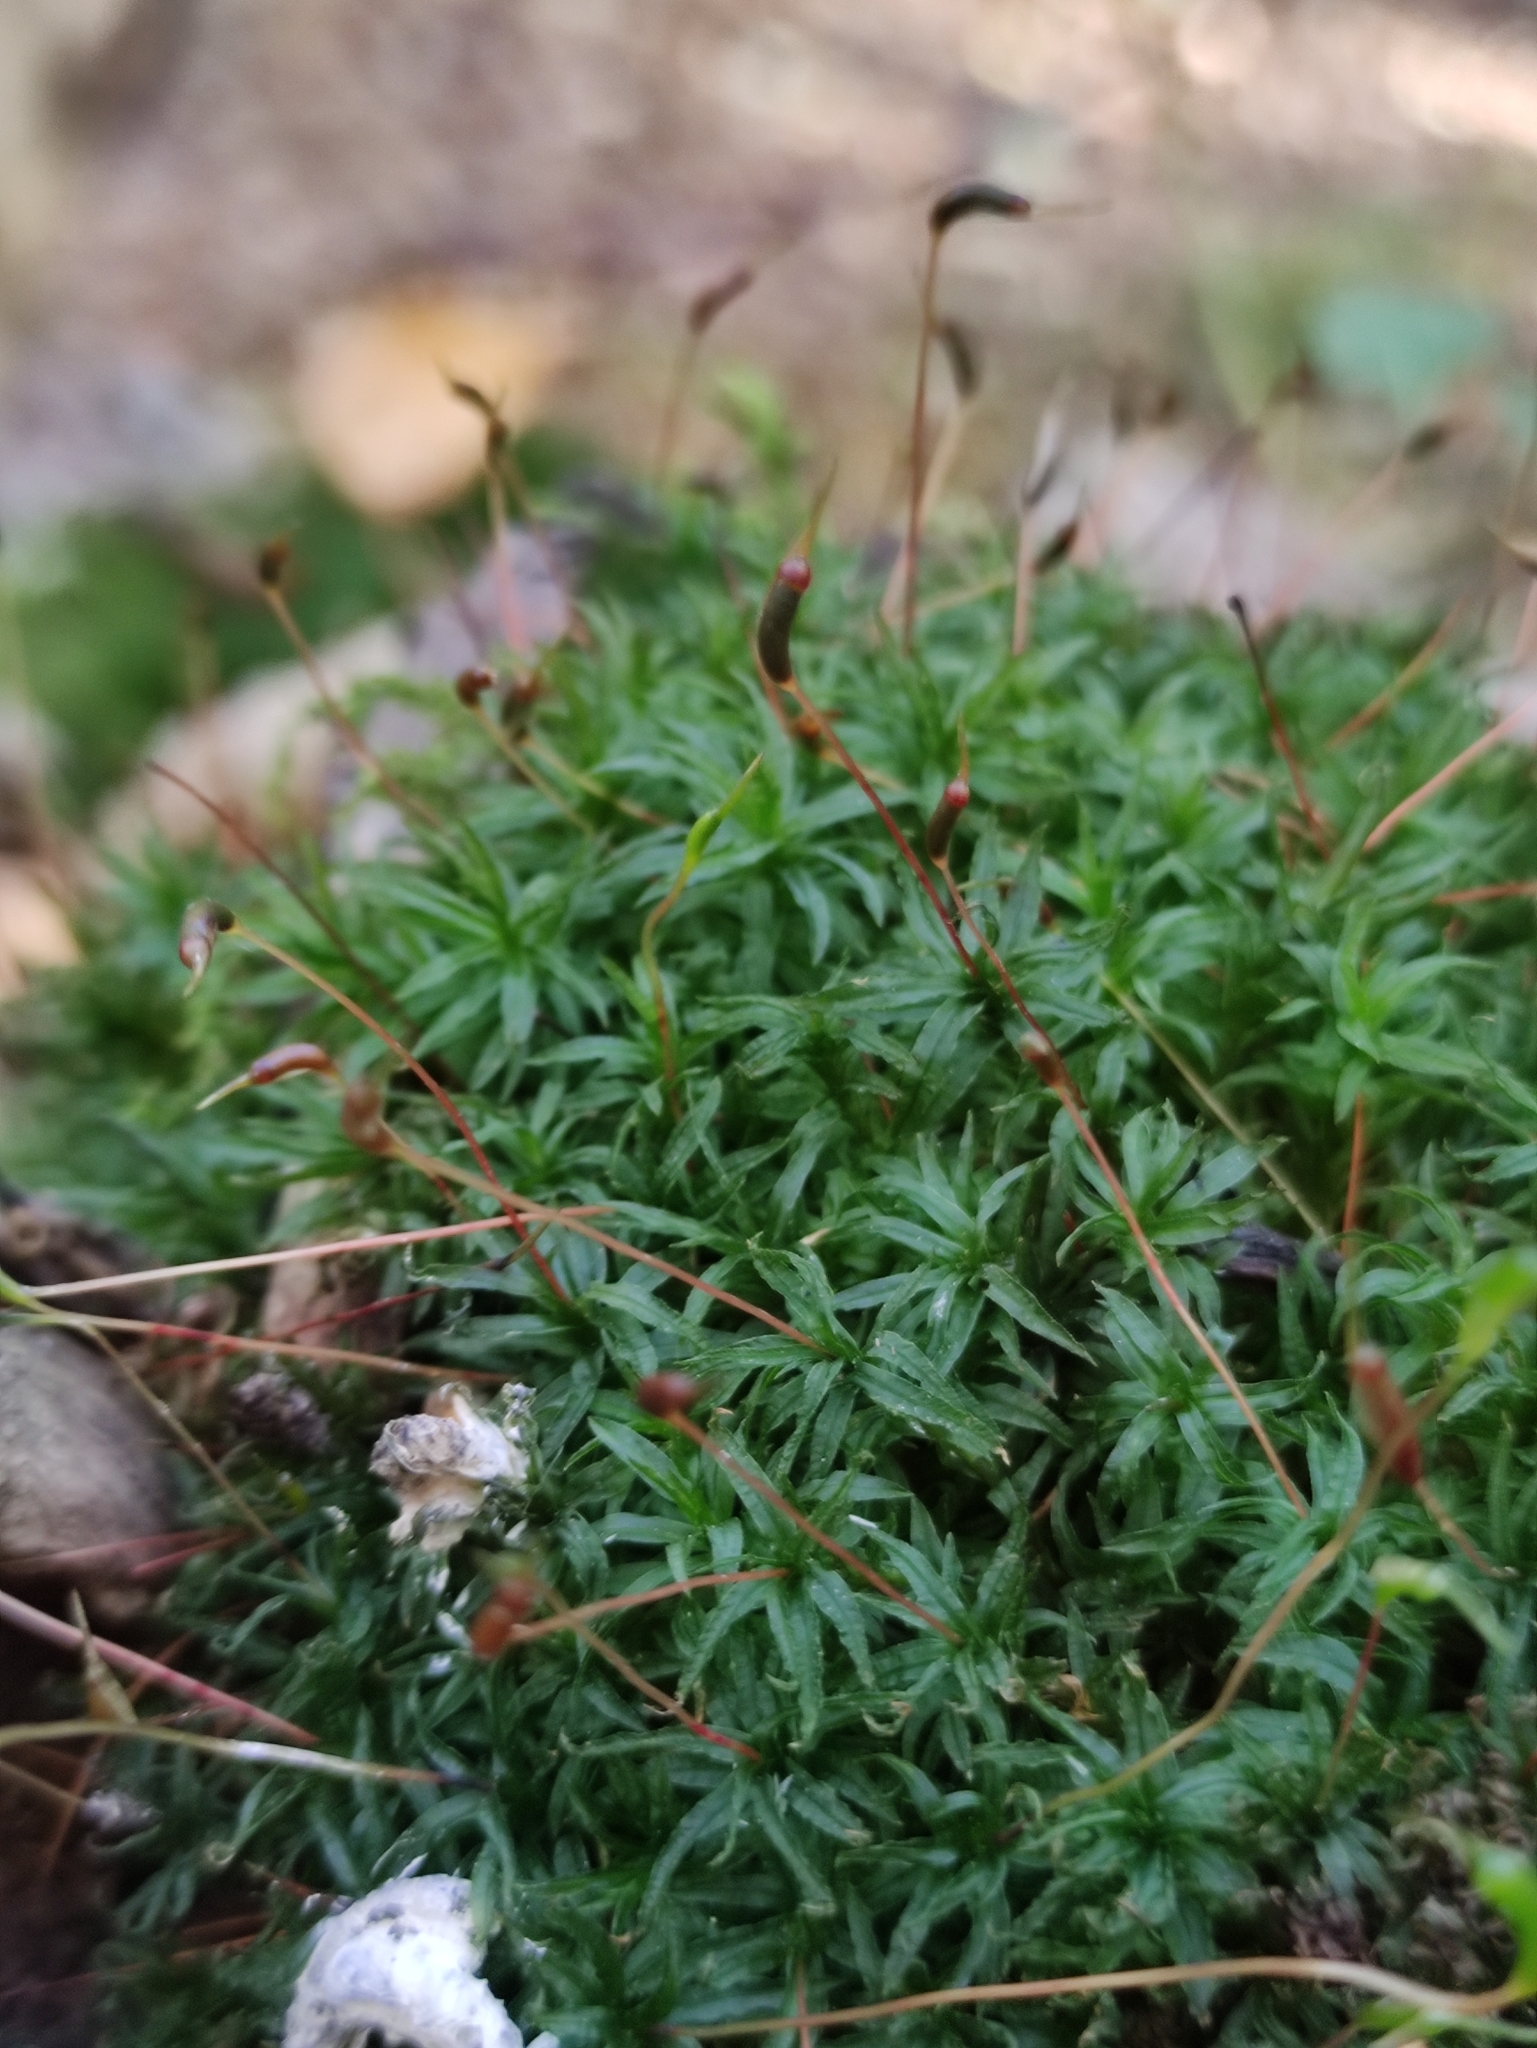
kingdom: Plantae
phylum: Bryophyta
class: Polytrichopsida
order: Polytrichales
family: Polytrichaceae
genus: Atrichum
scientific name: Atrichum undulatum
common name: Common smoothcap
